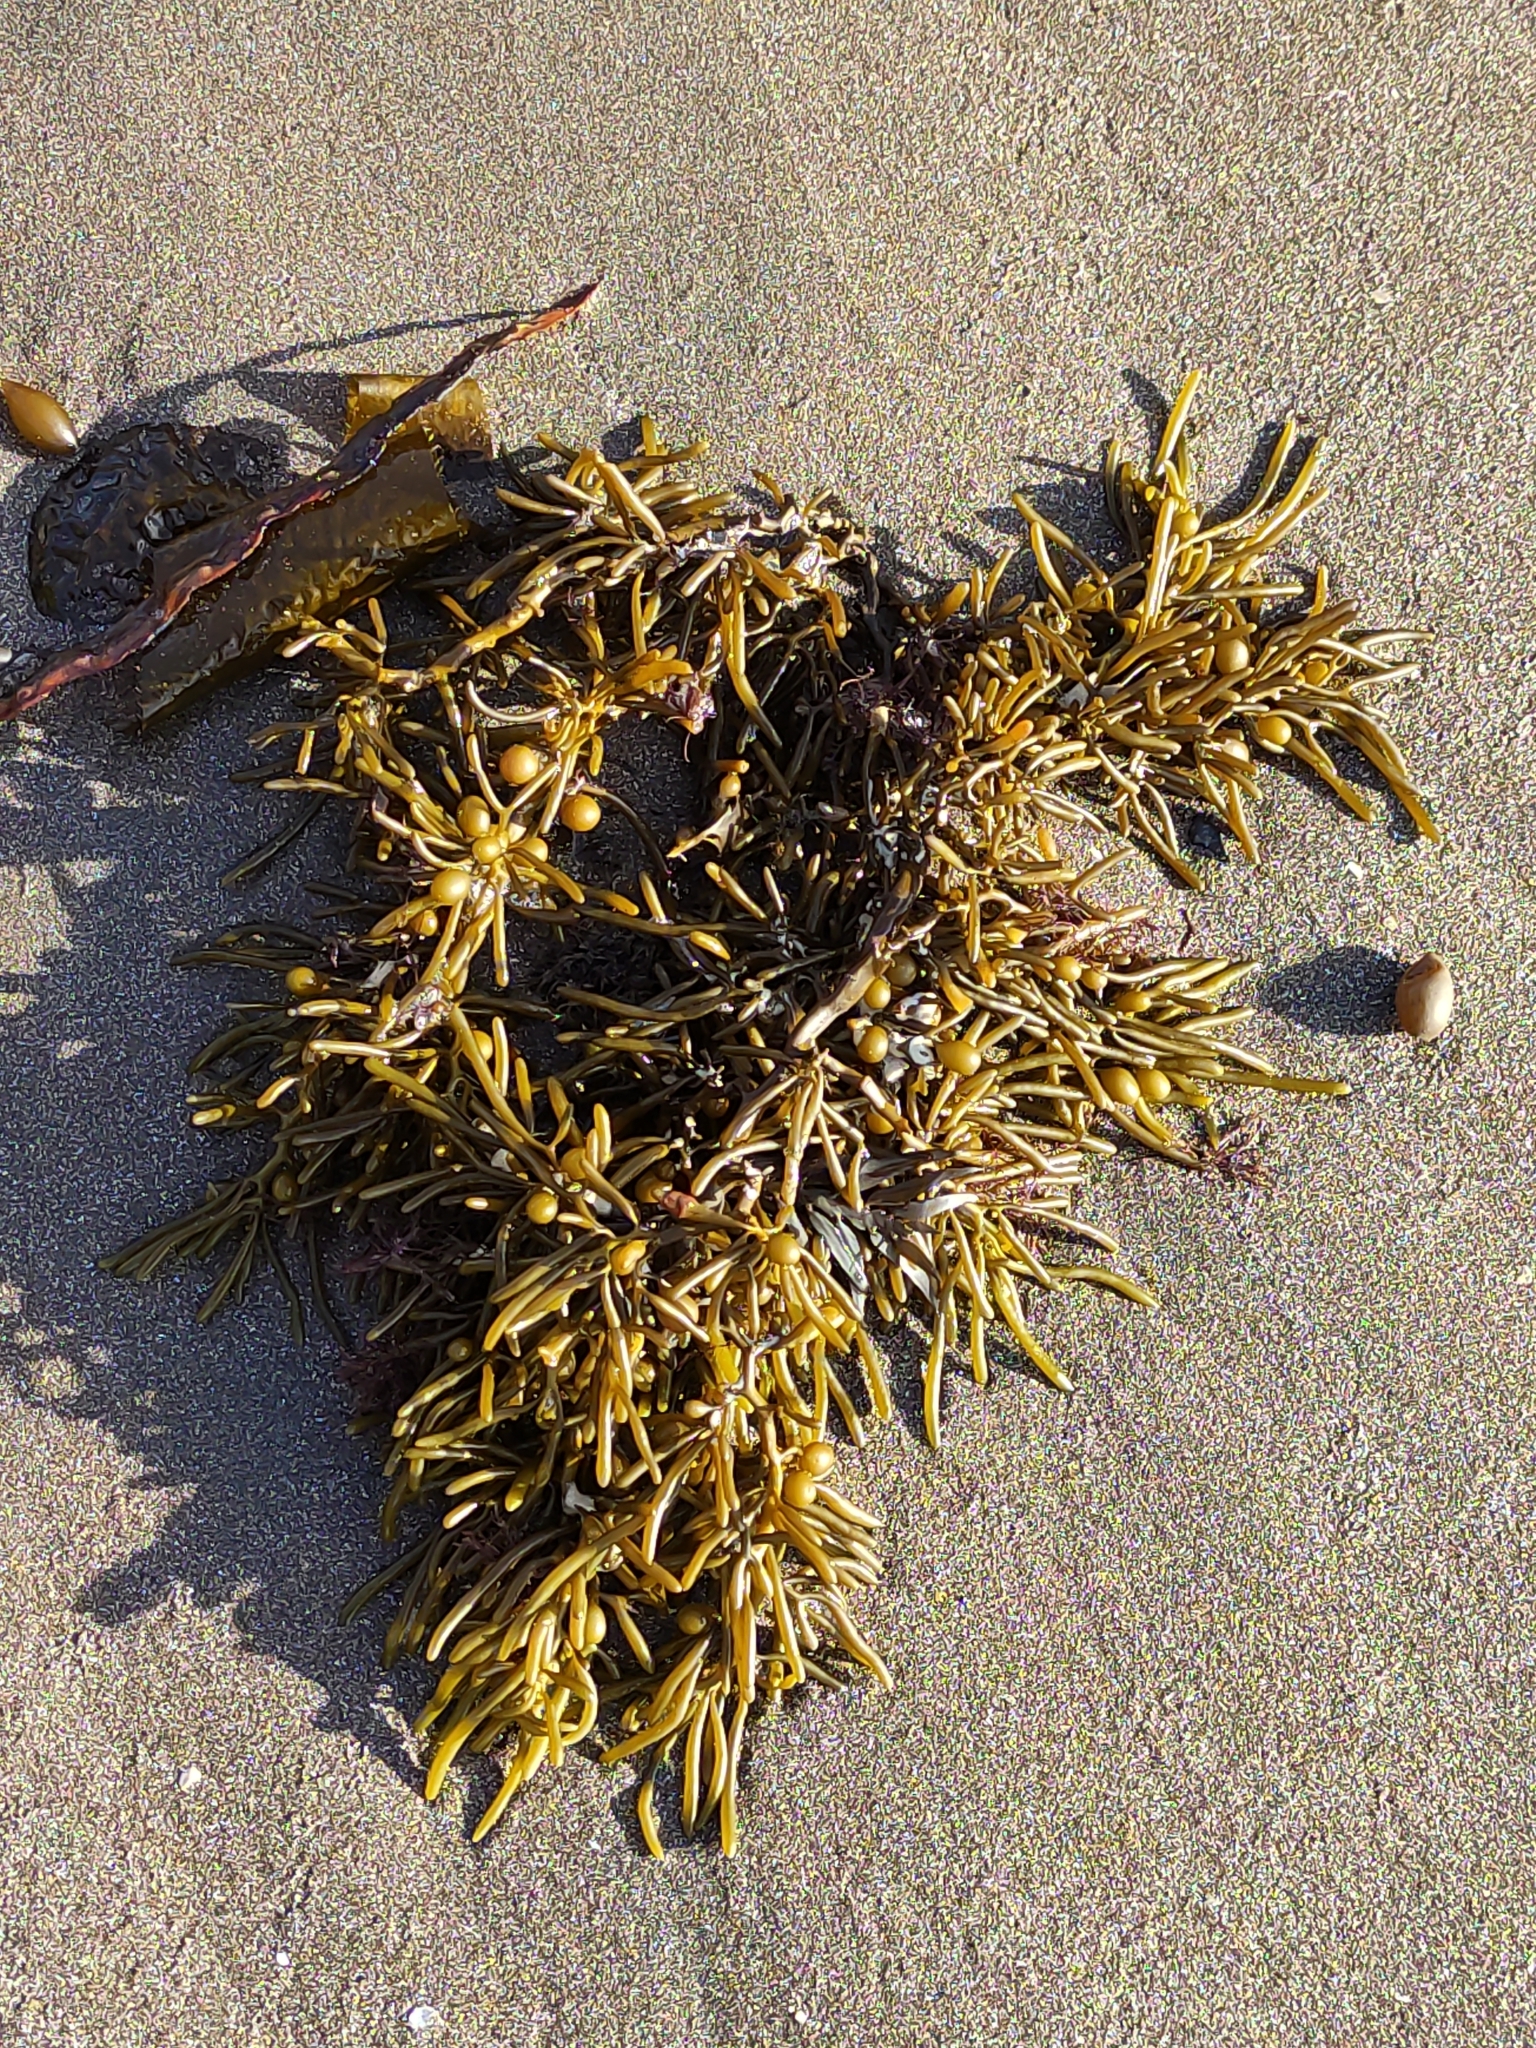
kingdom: Chromista
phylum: Ochrophyta
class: Phaeophyceae
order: Fucales
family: Sargassaceae
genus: Cystophora
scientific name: Cystophora torulosa
